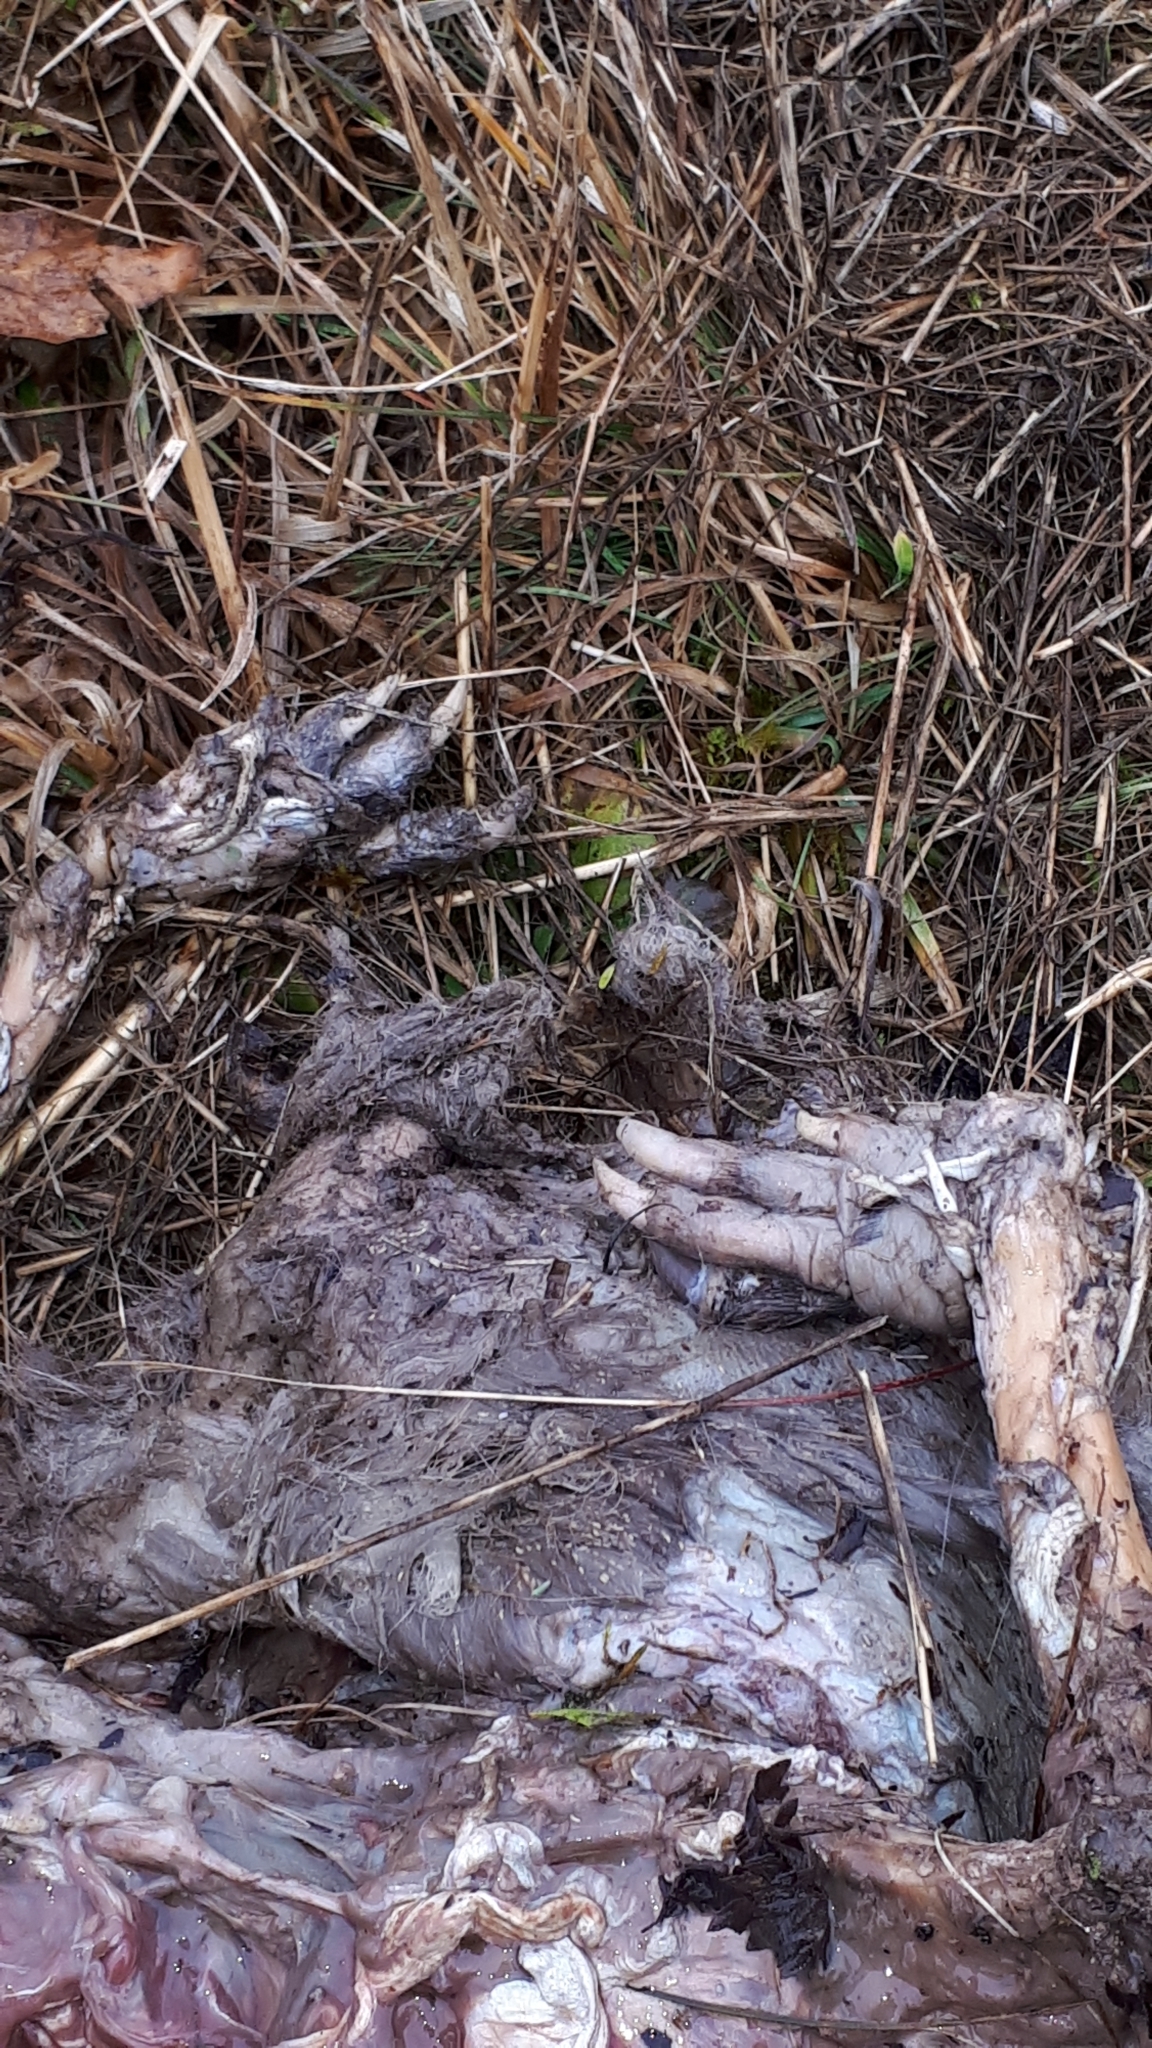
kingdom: Animalia
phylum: Chordata
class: Mammalia
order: Rodentia
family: Castoridae
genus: Castor
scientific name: Castor fiber
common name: Eurasian beaver
